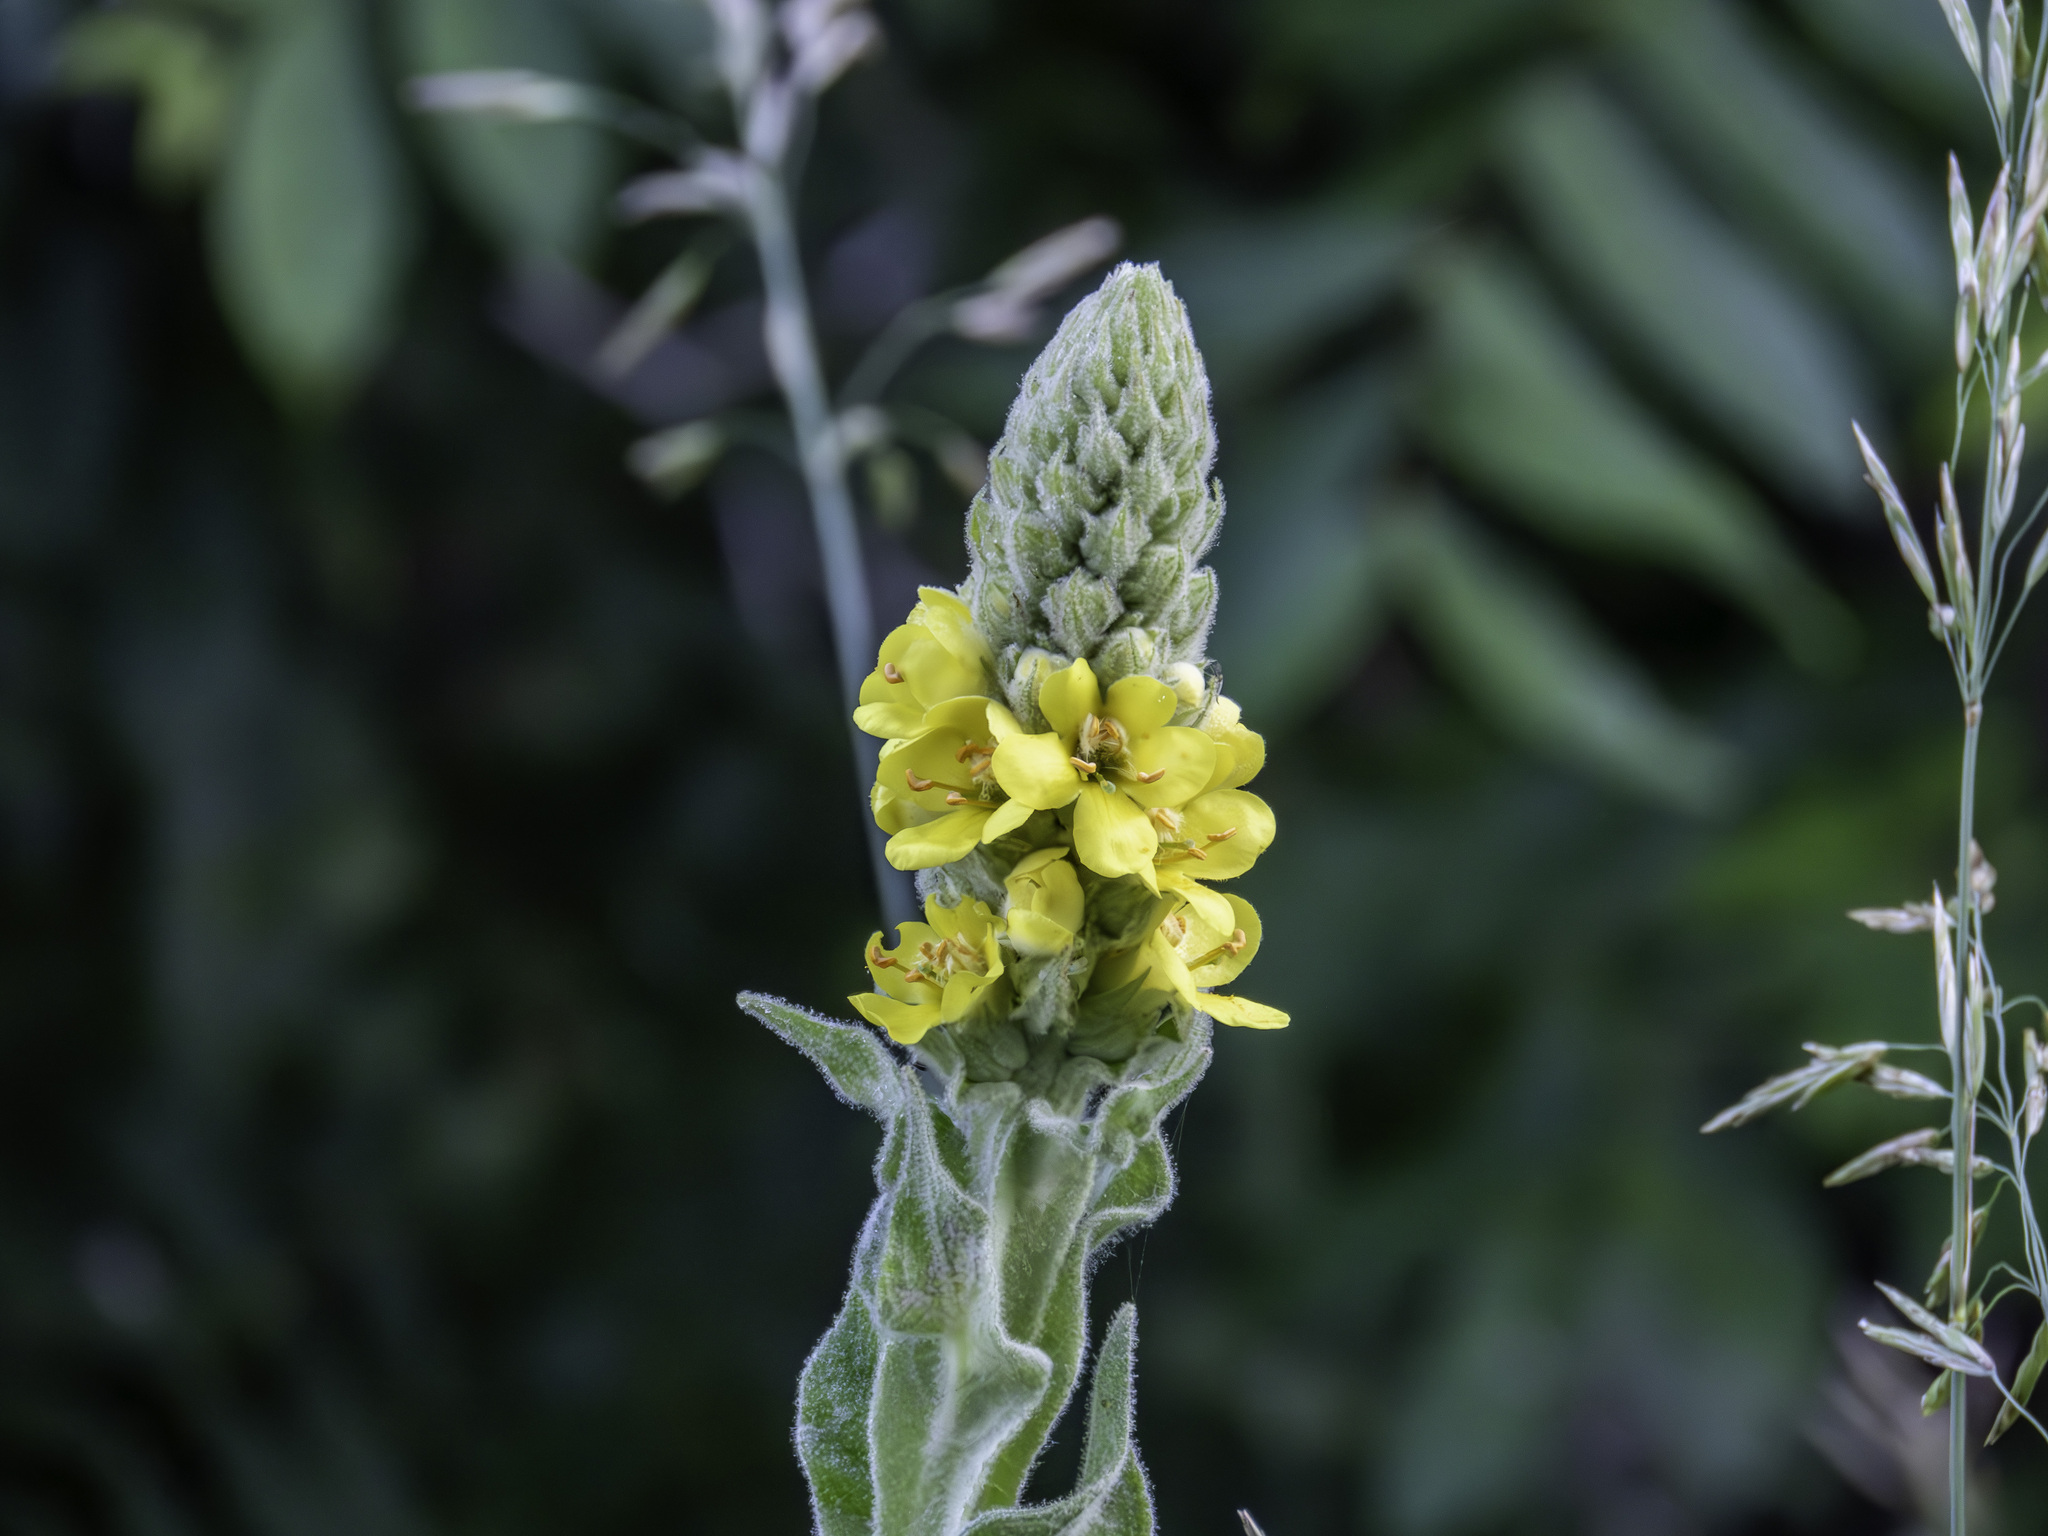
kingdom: Plantae
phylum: Tracheophyta
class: Magnoliopsida
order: Lamiales
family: Scrophulariaceae
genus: Verbascum
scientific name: Verbascum thapsus
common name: Common mullein
